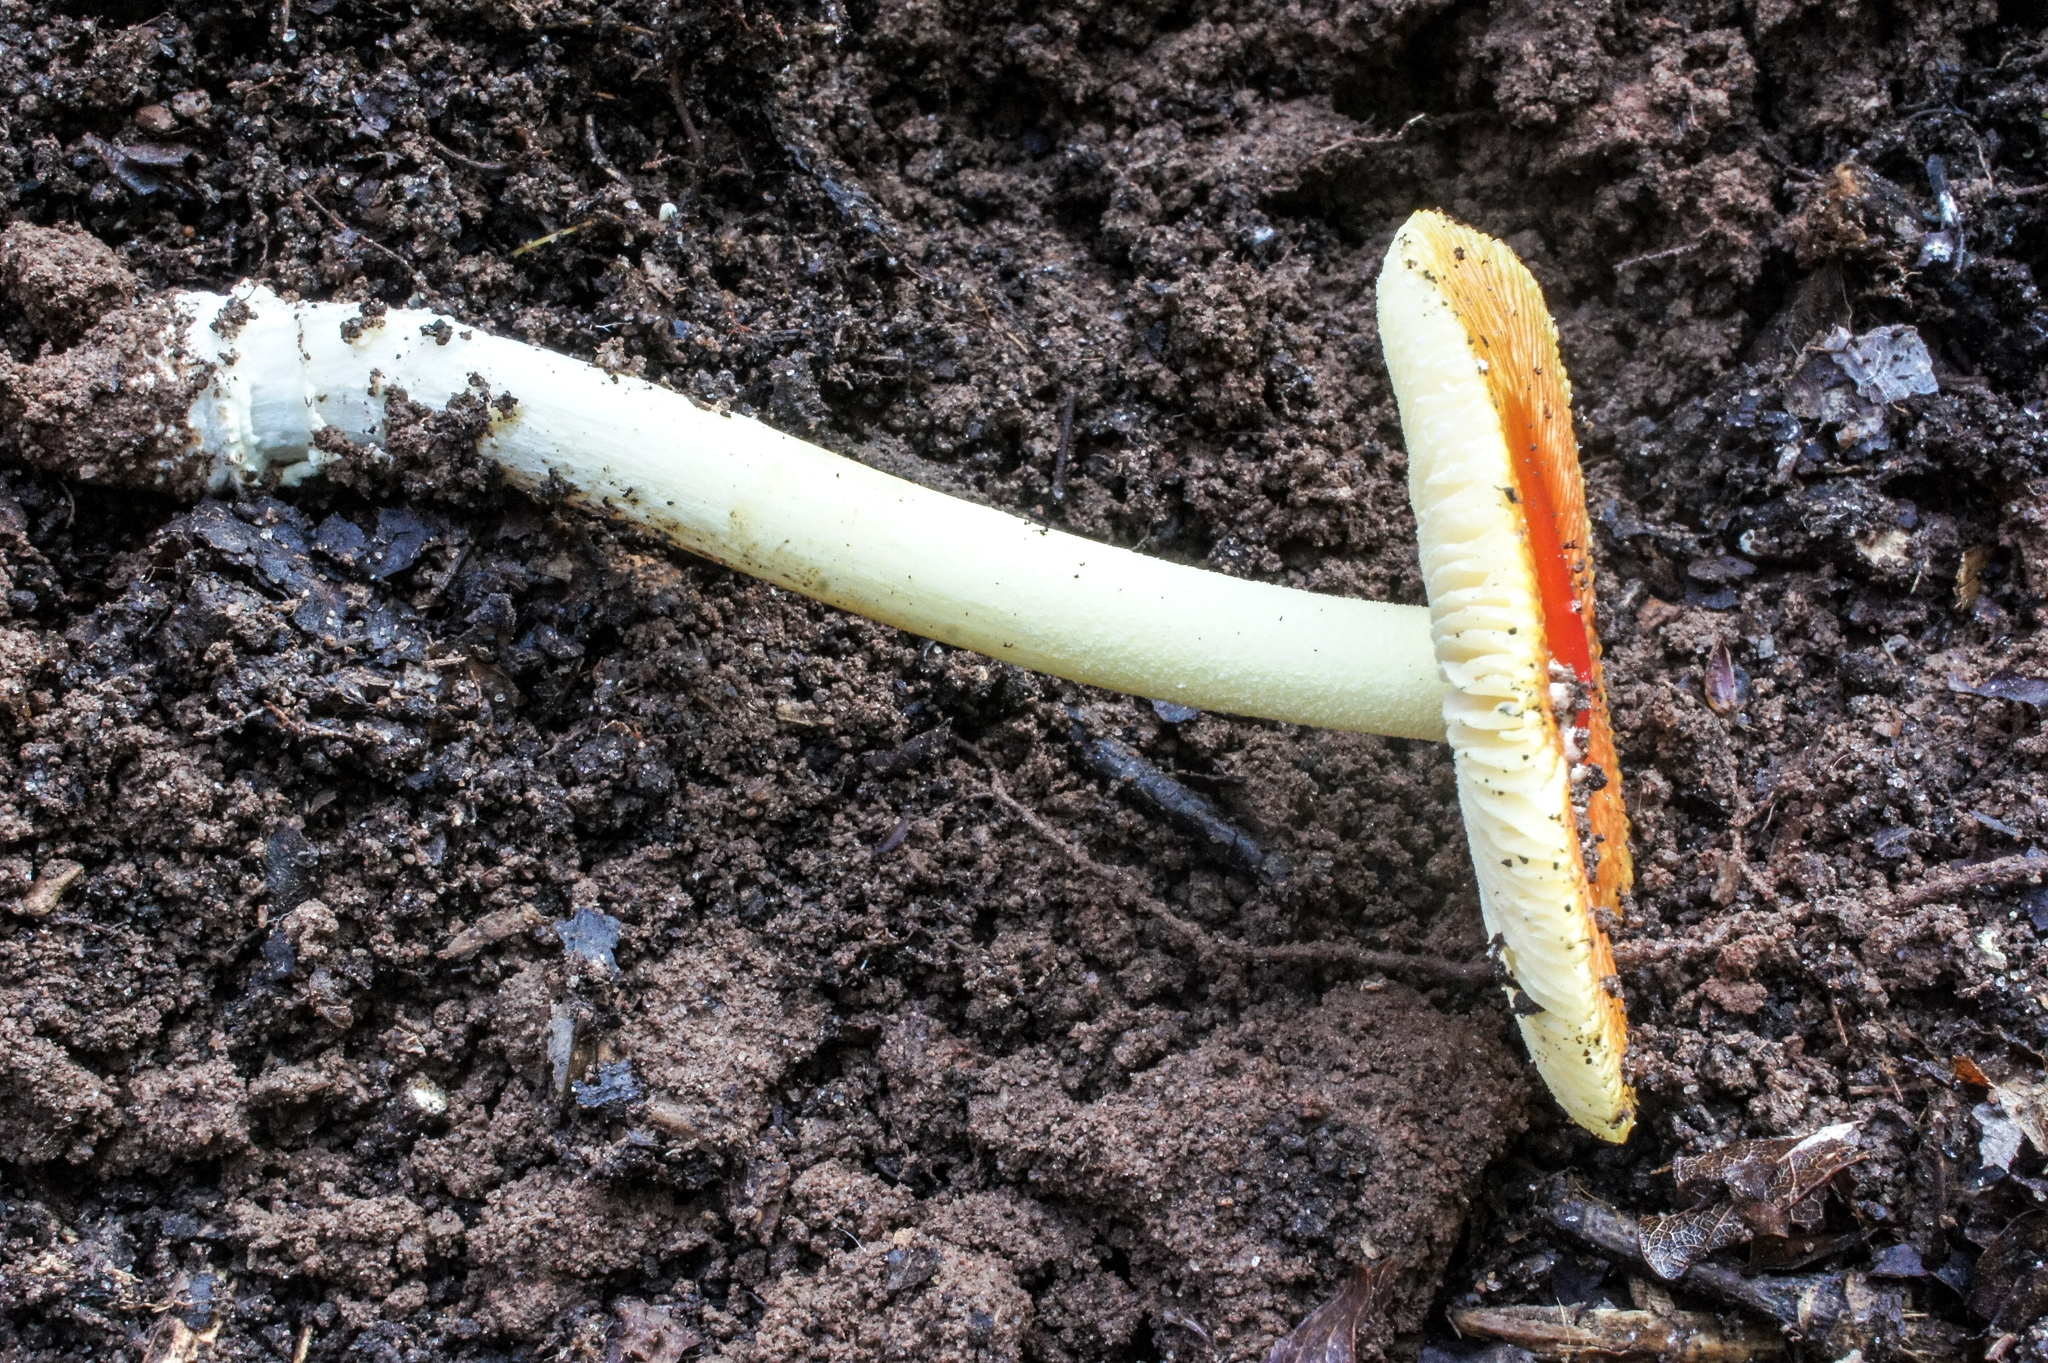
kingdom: Fungi
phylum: Basidiomycota
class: Agaricomycetes
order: Agaricales
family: Amanitaceae
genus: Amanita
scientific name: Amanita parcivolvata
